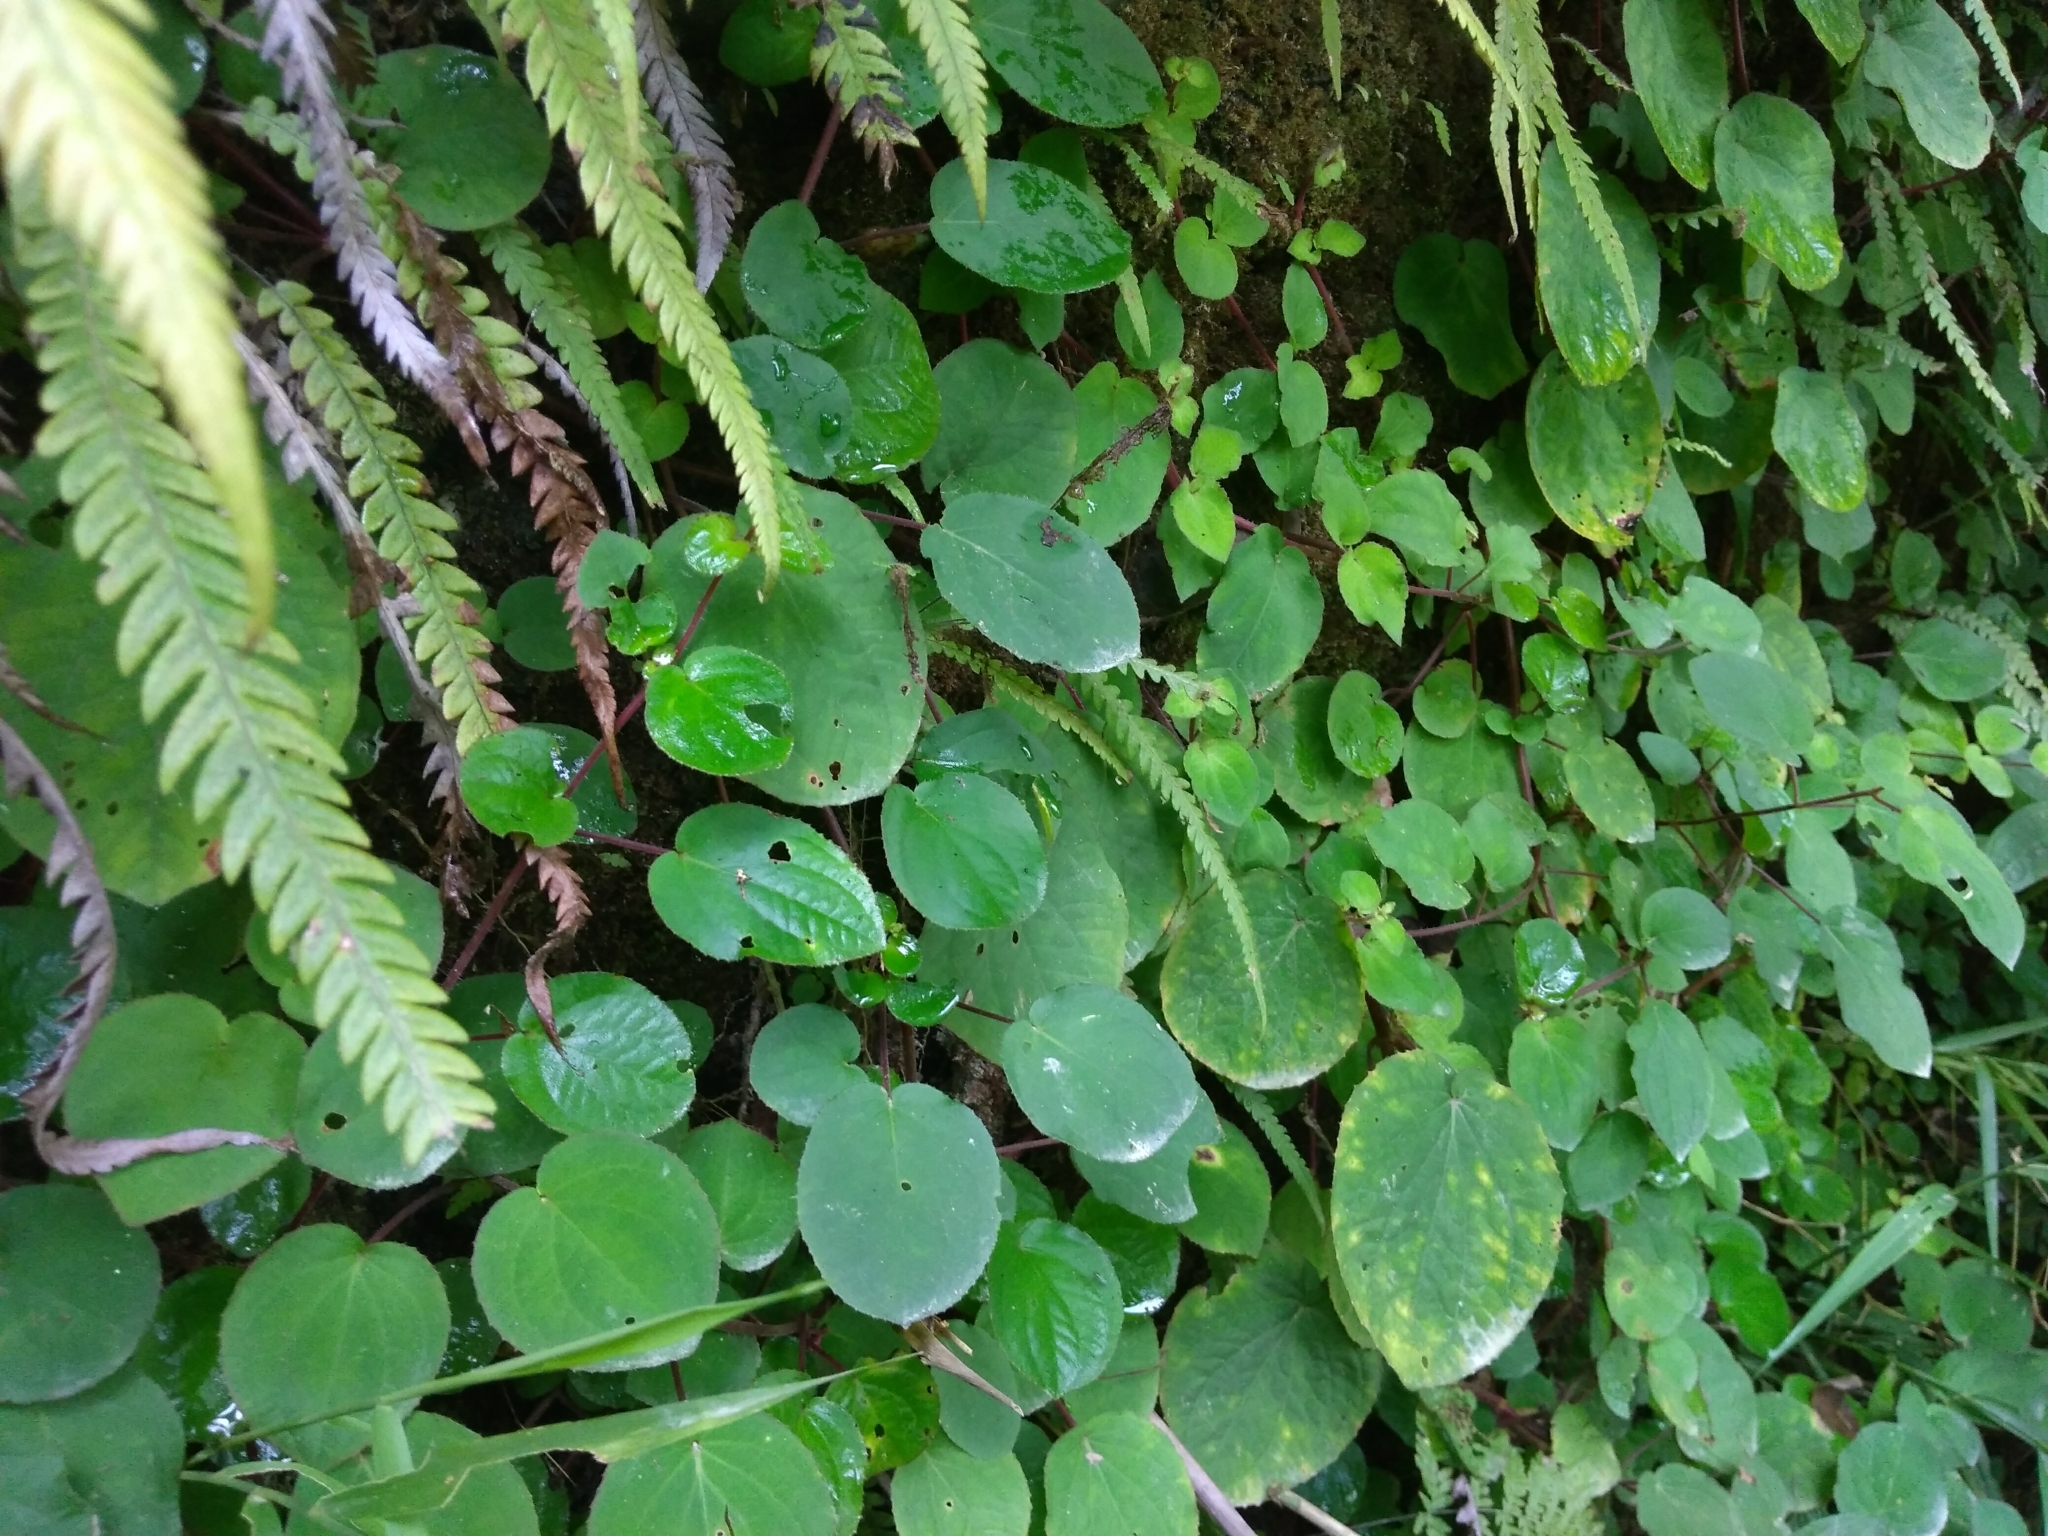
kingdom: Plantae
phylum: Tracheophyta
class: Magnoliopsida
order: Myrtales
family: Melastomataceae
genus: Bredia
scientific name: Bredia hirsuta
